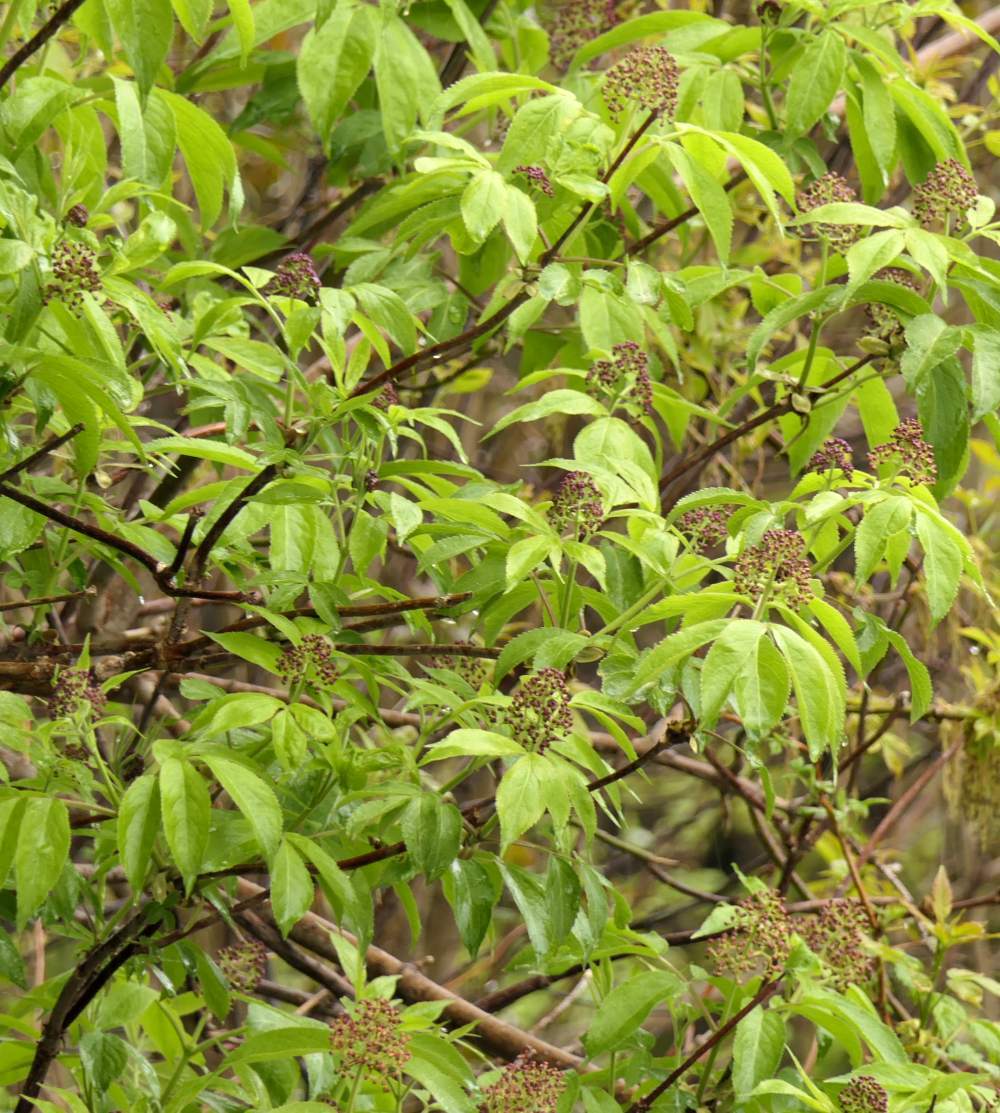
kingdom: Plantae
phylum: Tracheophyta
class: Magnoliopsida
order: Dipsacales
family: Viburnaceae
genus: Sambucus
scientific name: Sambucus racemosa
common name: Red-berried elder
